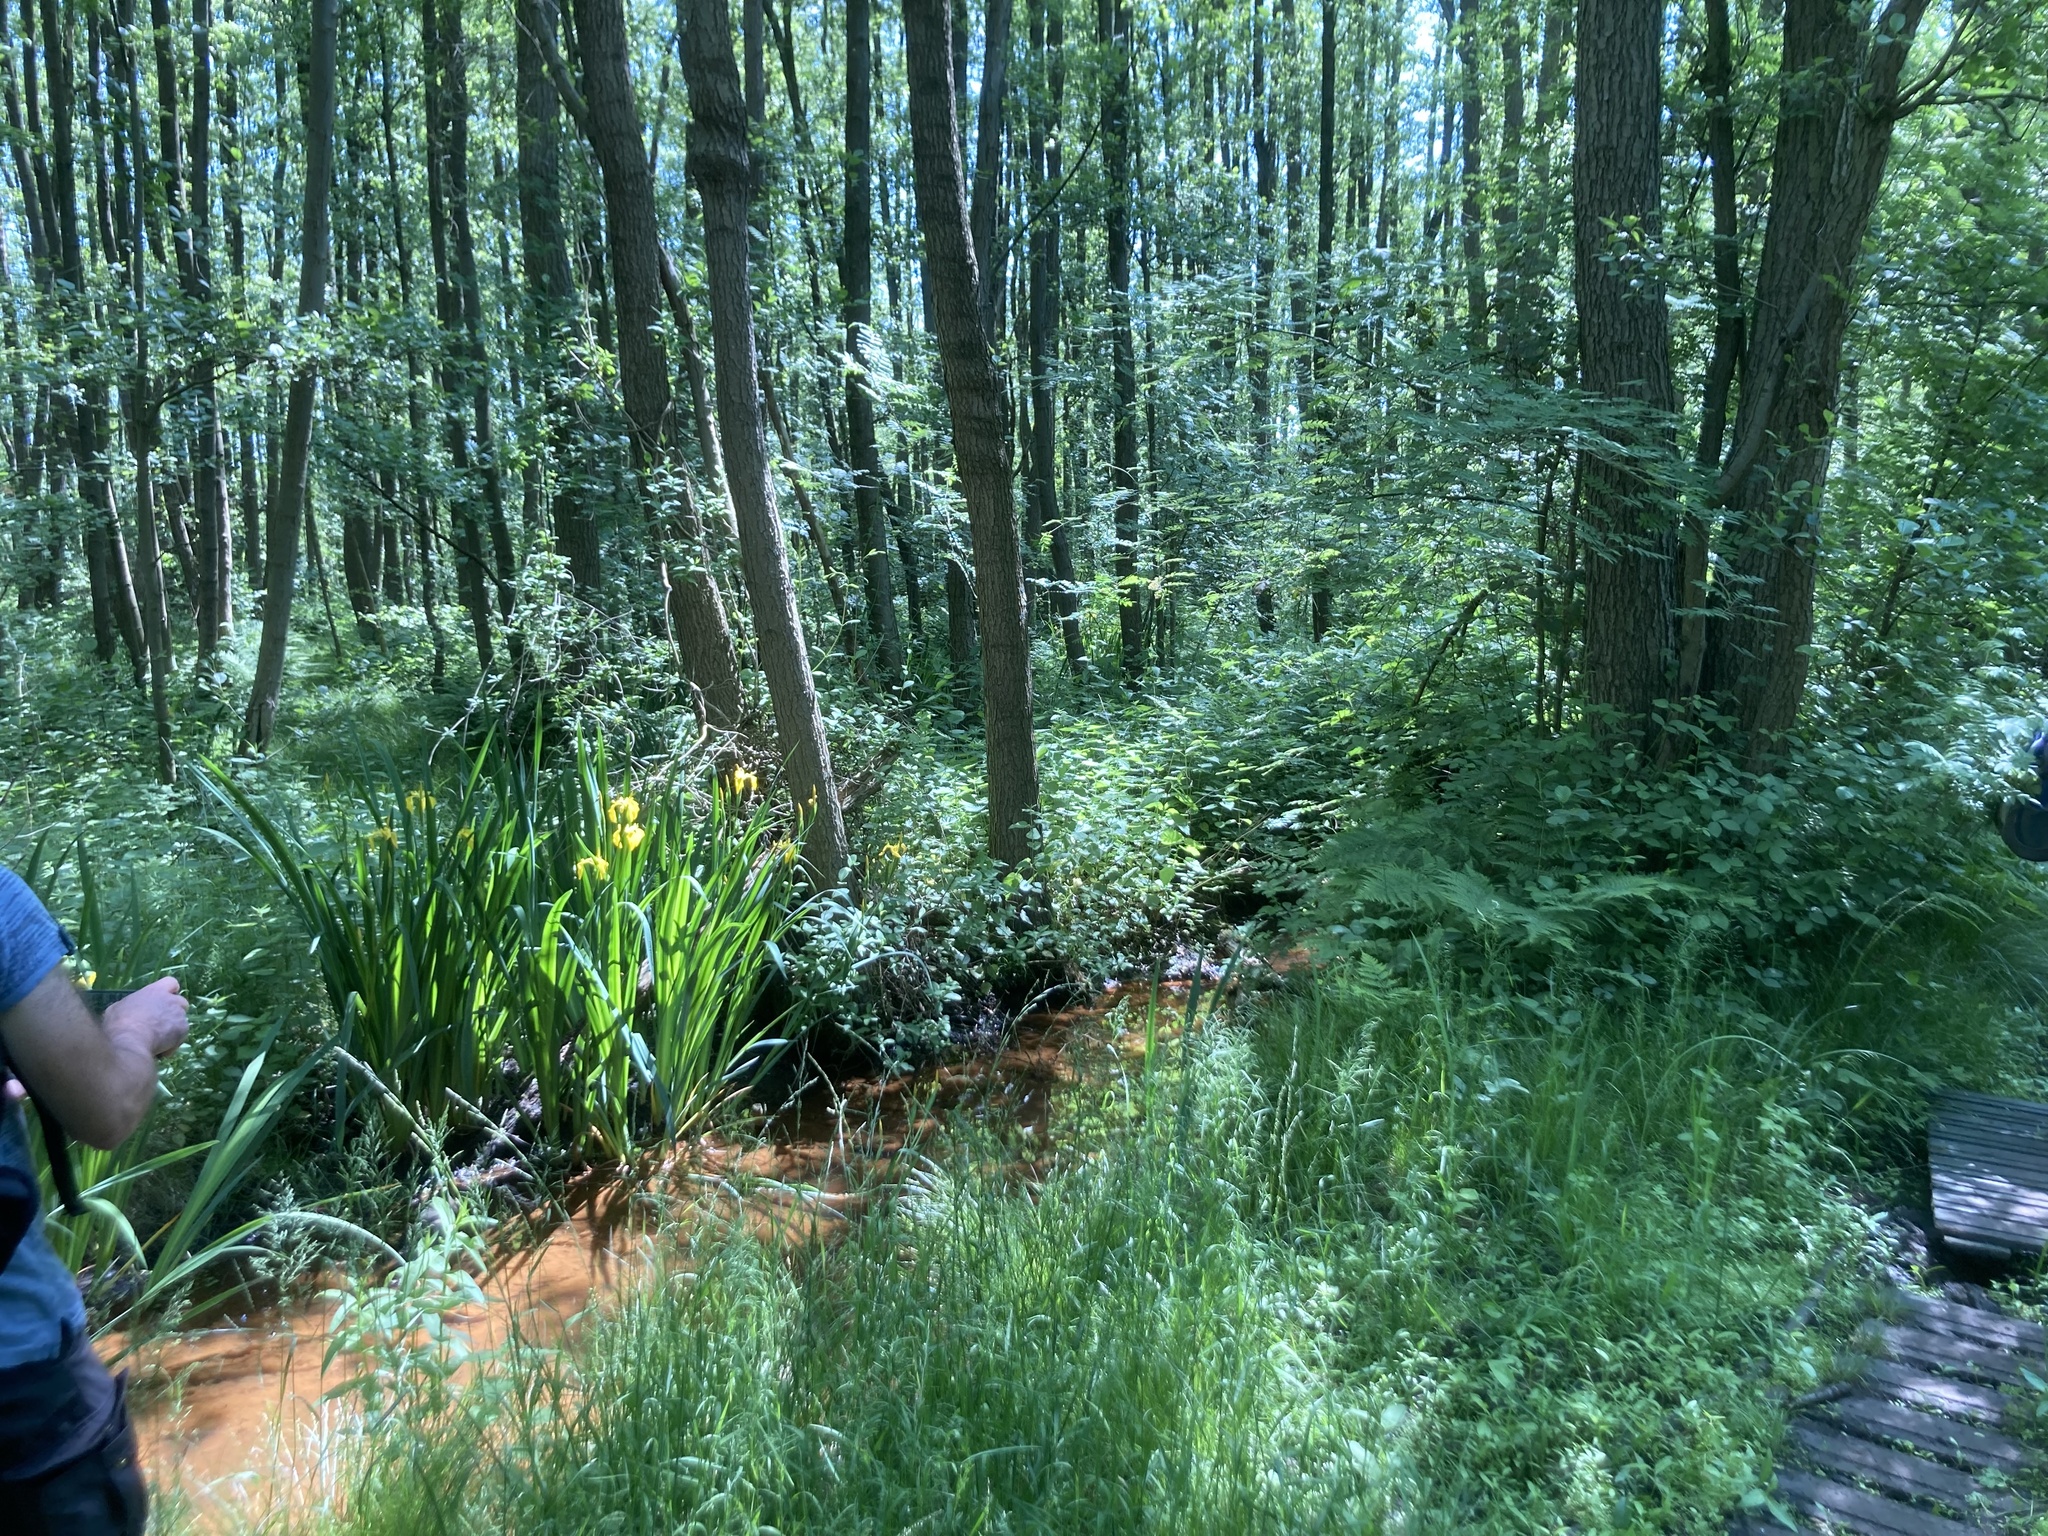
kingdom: Plantae
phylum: Tracheophyta
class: Liliopsida
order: Asparagales
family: Iridaceae
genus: Iris
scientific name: Iris pseudacorus
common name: Yellow flag
